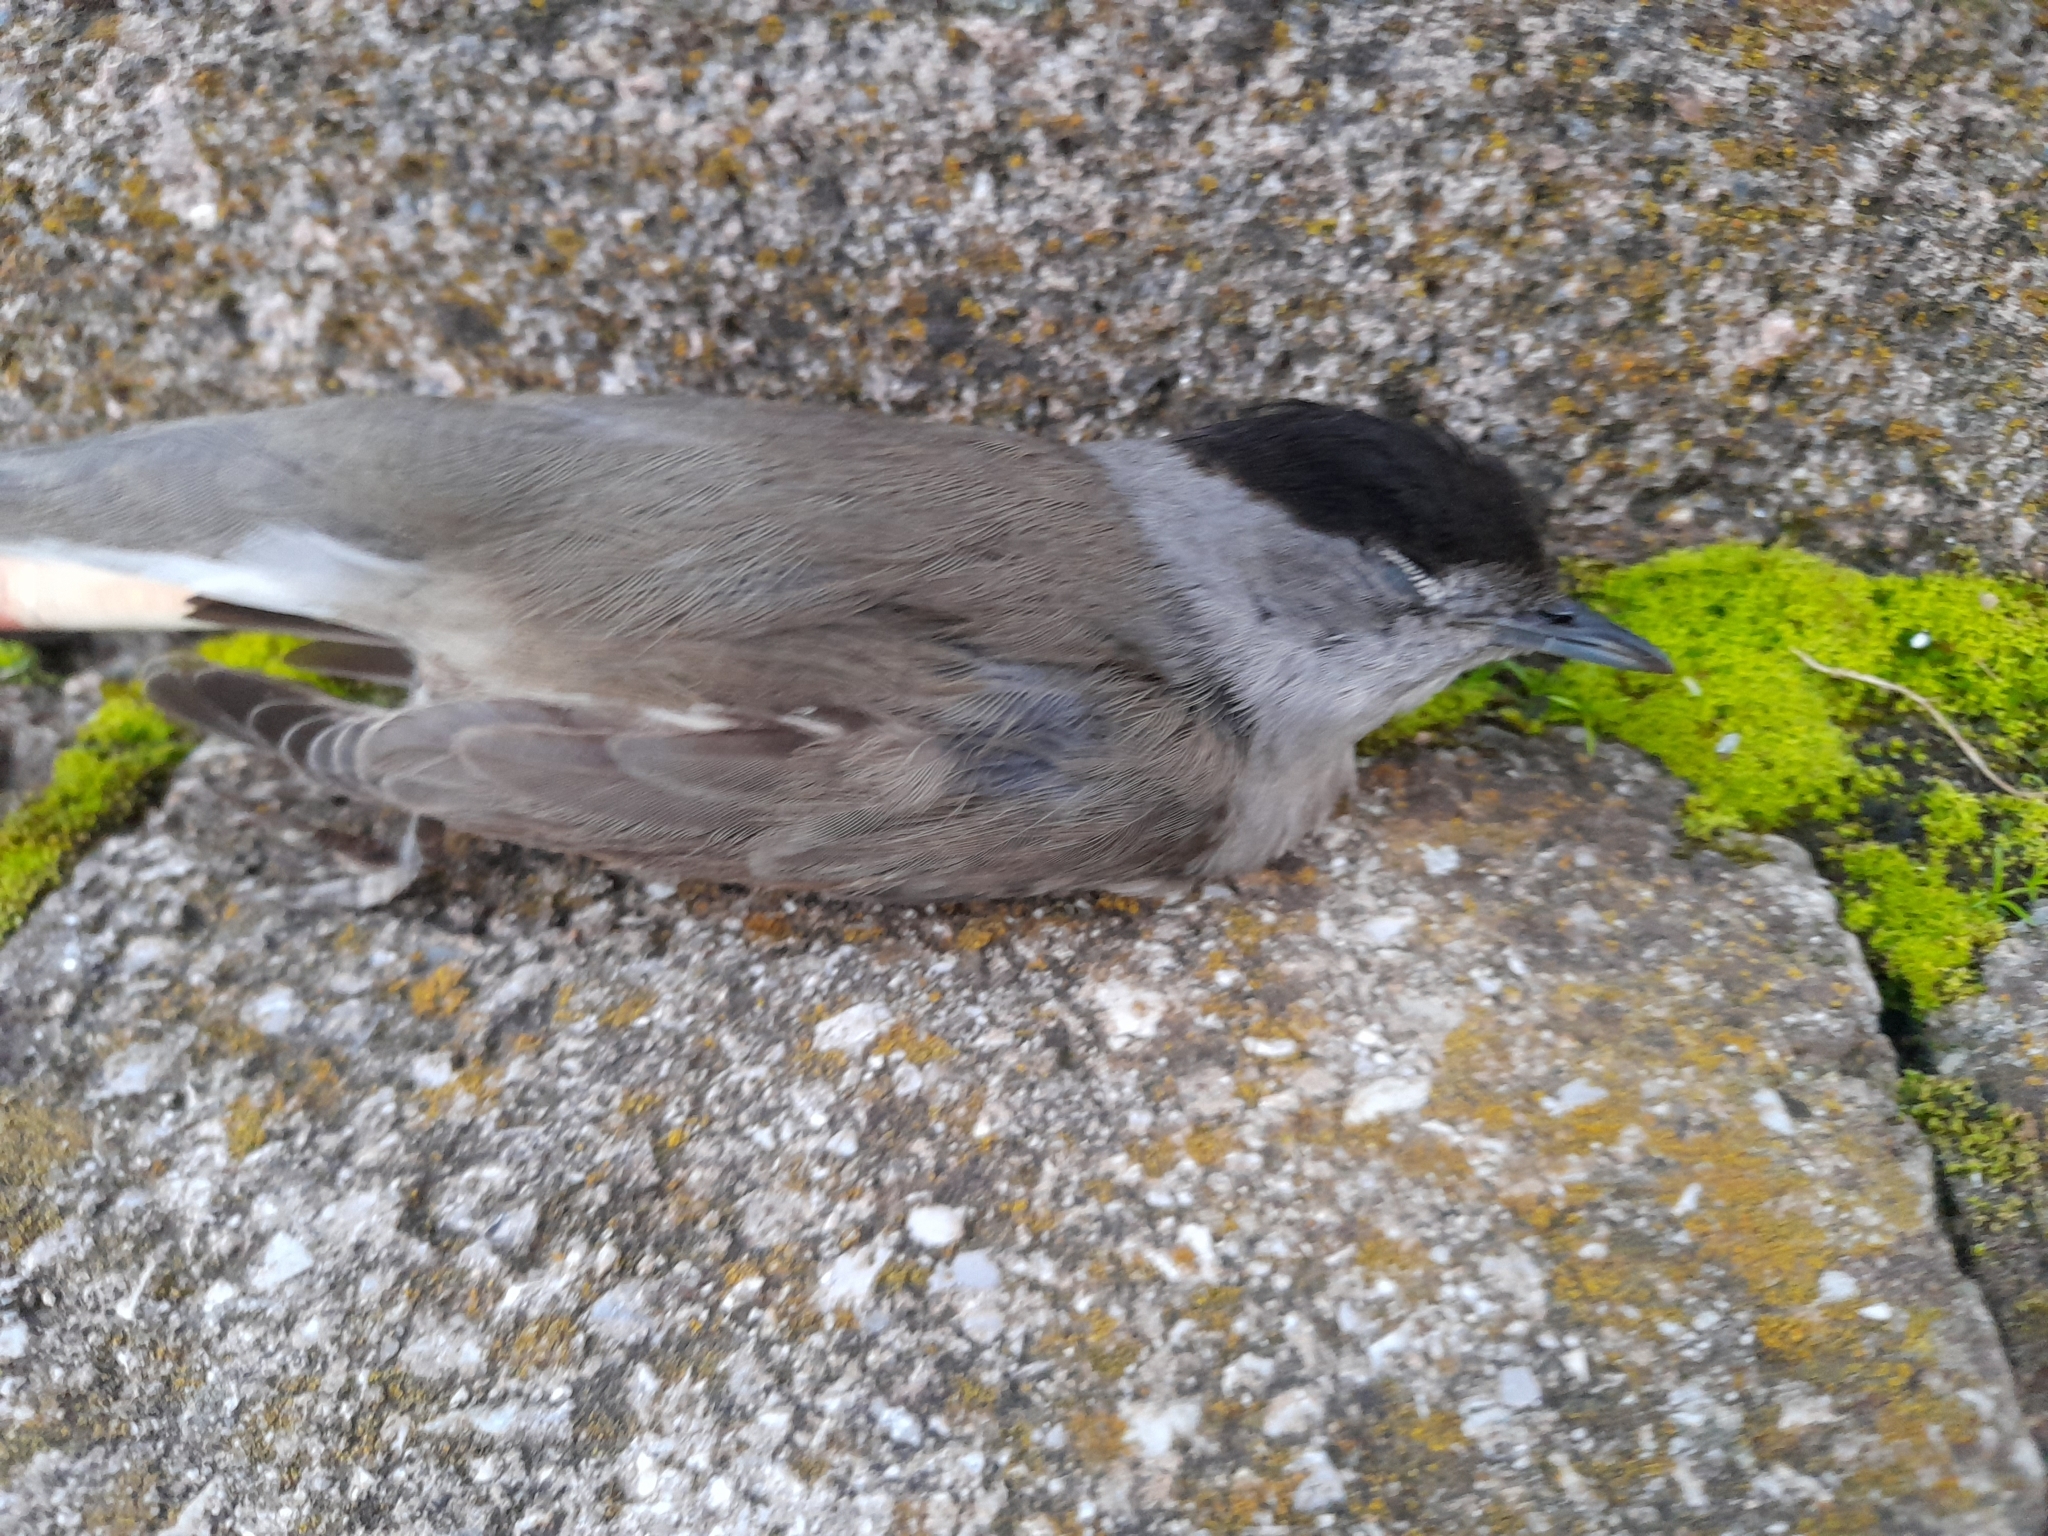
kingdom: Animalia
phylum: Chordata
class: Aves
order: Passeriformes
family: Sylviidae
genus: Sylvia
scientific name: Sylvia atricapilla
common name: Eurasian blackcap
